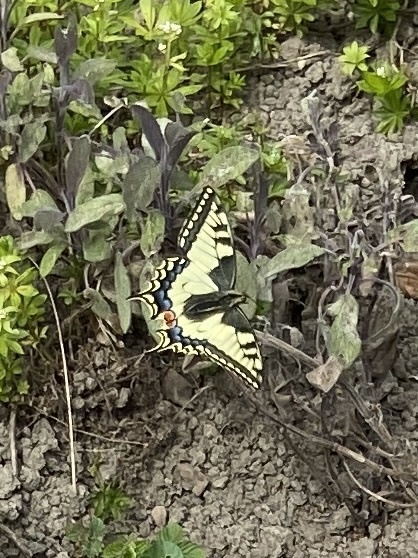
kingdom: Animalia
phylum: Arthropoda
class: Insecta
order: Lepidoptera
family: Papilionidae
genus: Papilio
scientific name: Papilio machaon
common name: Swallowtail
